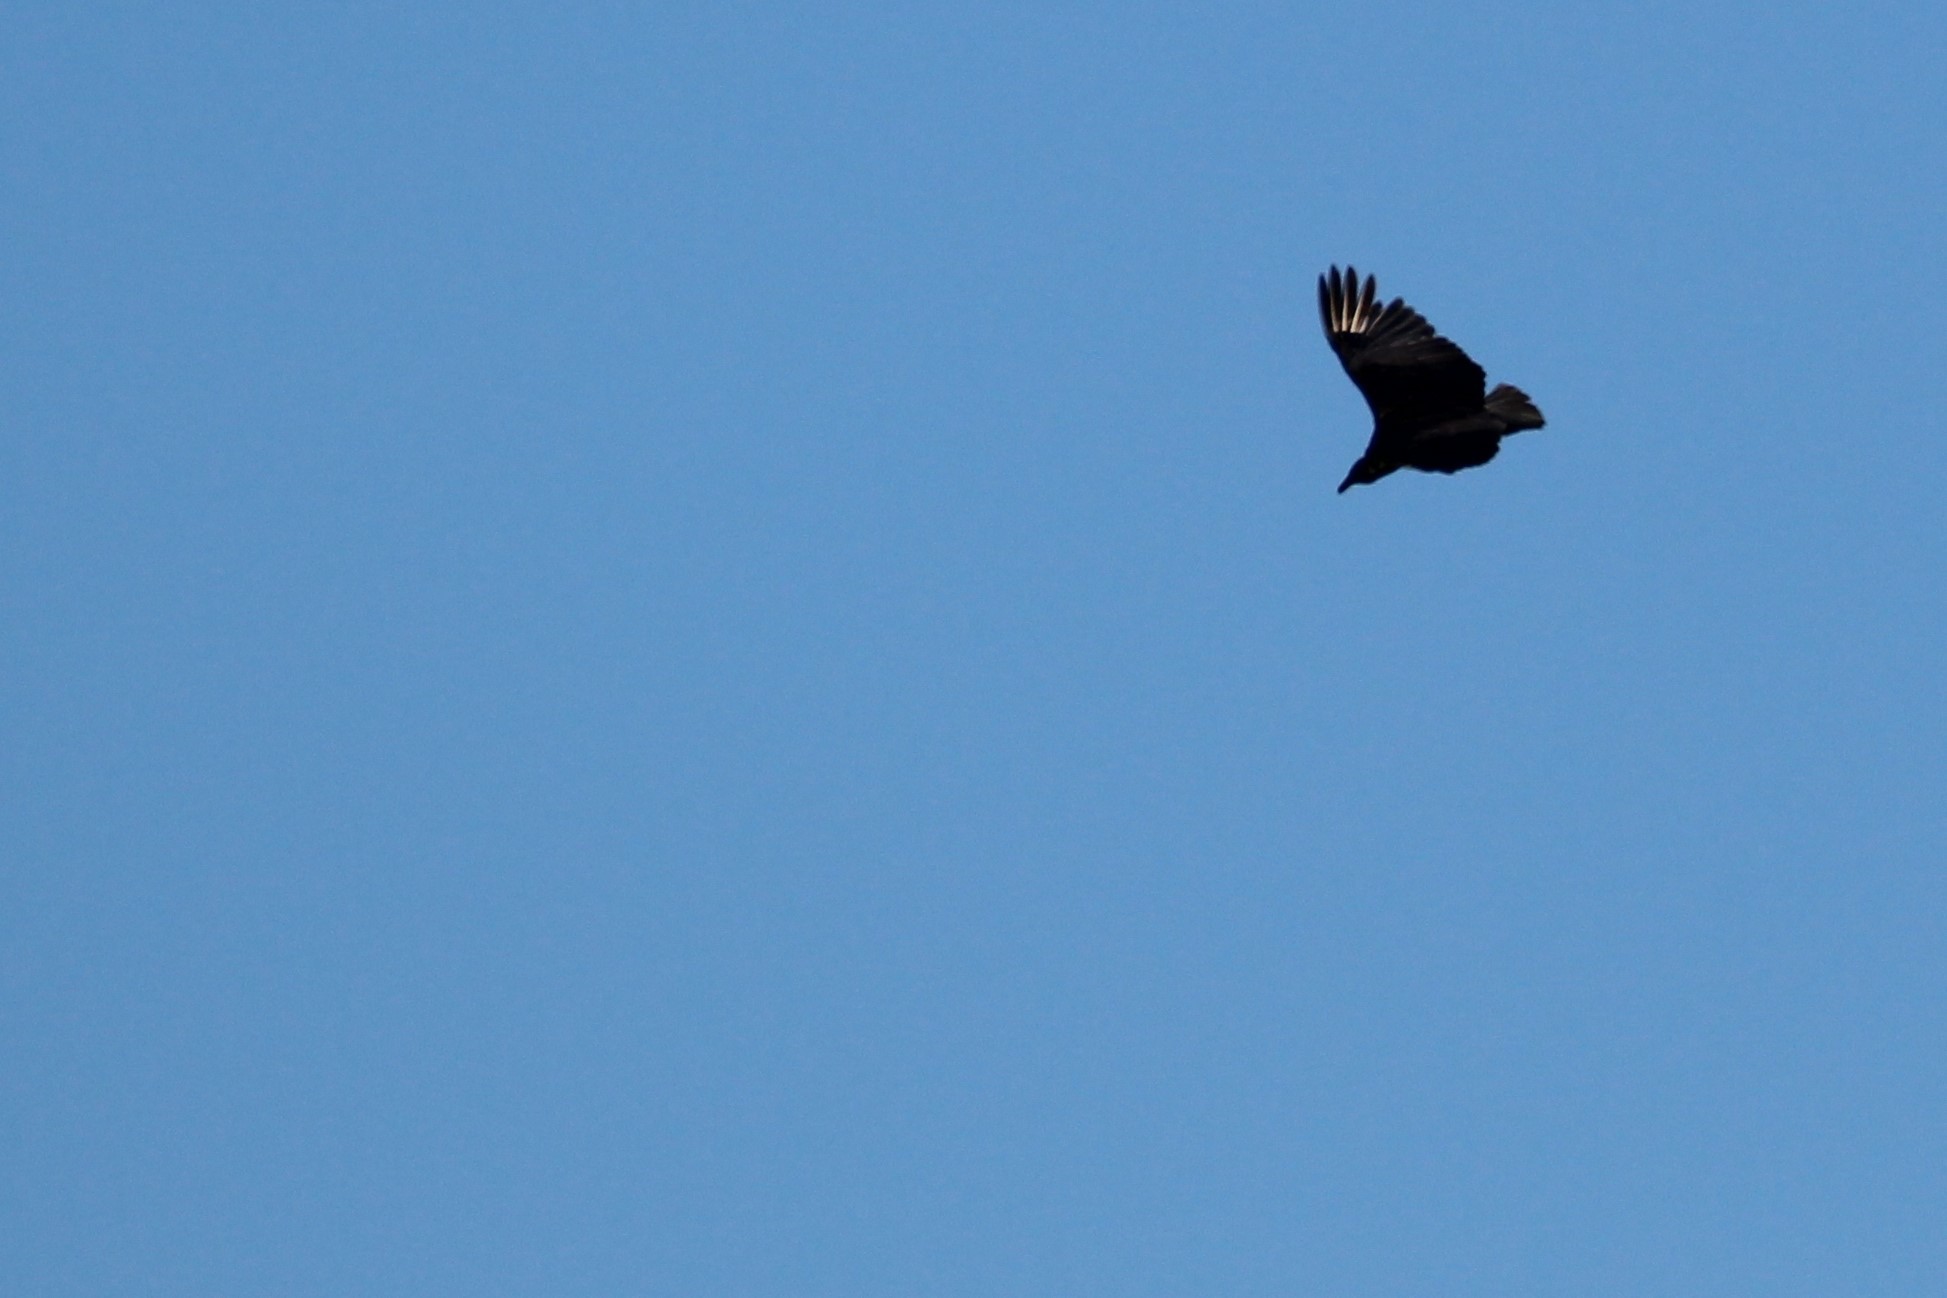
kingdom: Animalia
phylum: Chordata
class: Aves
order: Accipitriformes
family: Cathartidae
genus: Coragyps
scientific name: Coragyps atratus
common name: Black vulture
